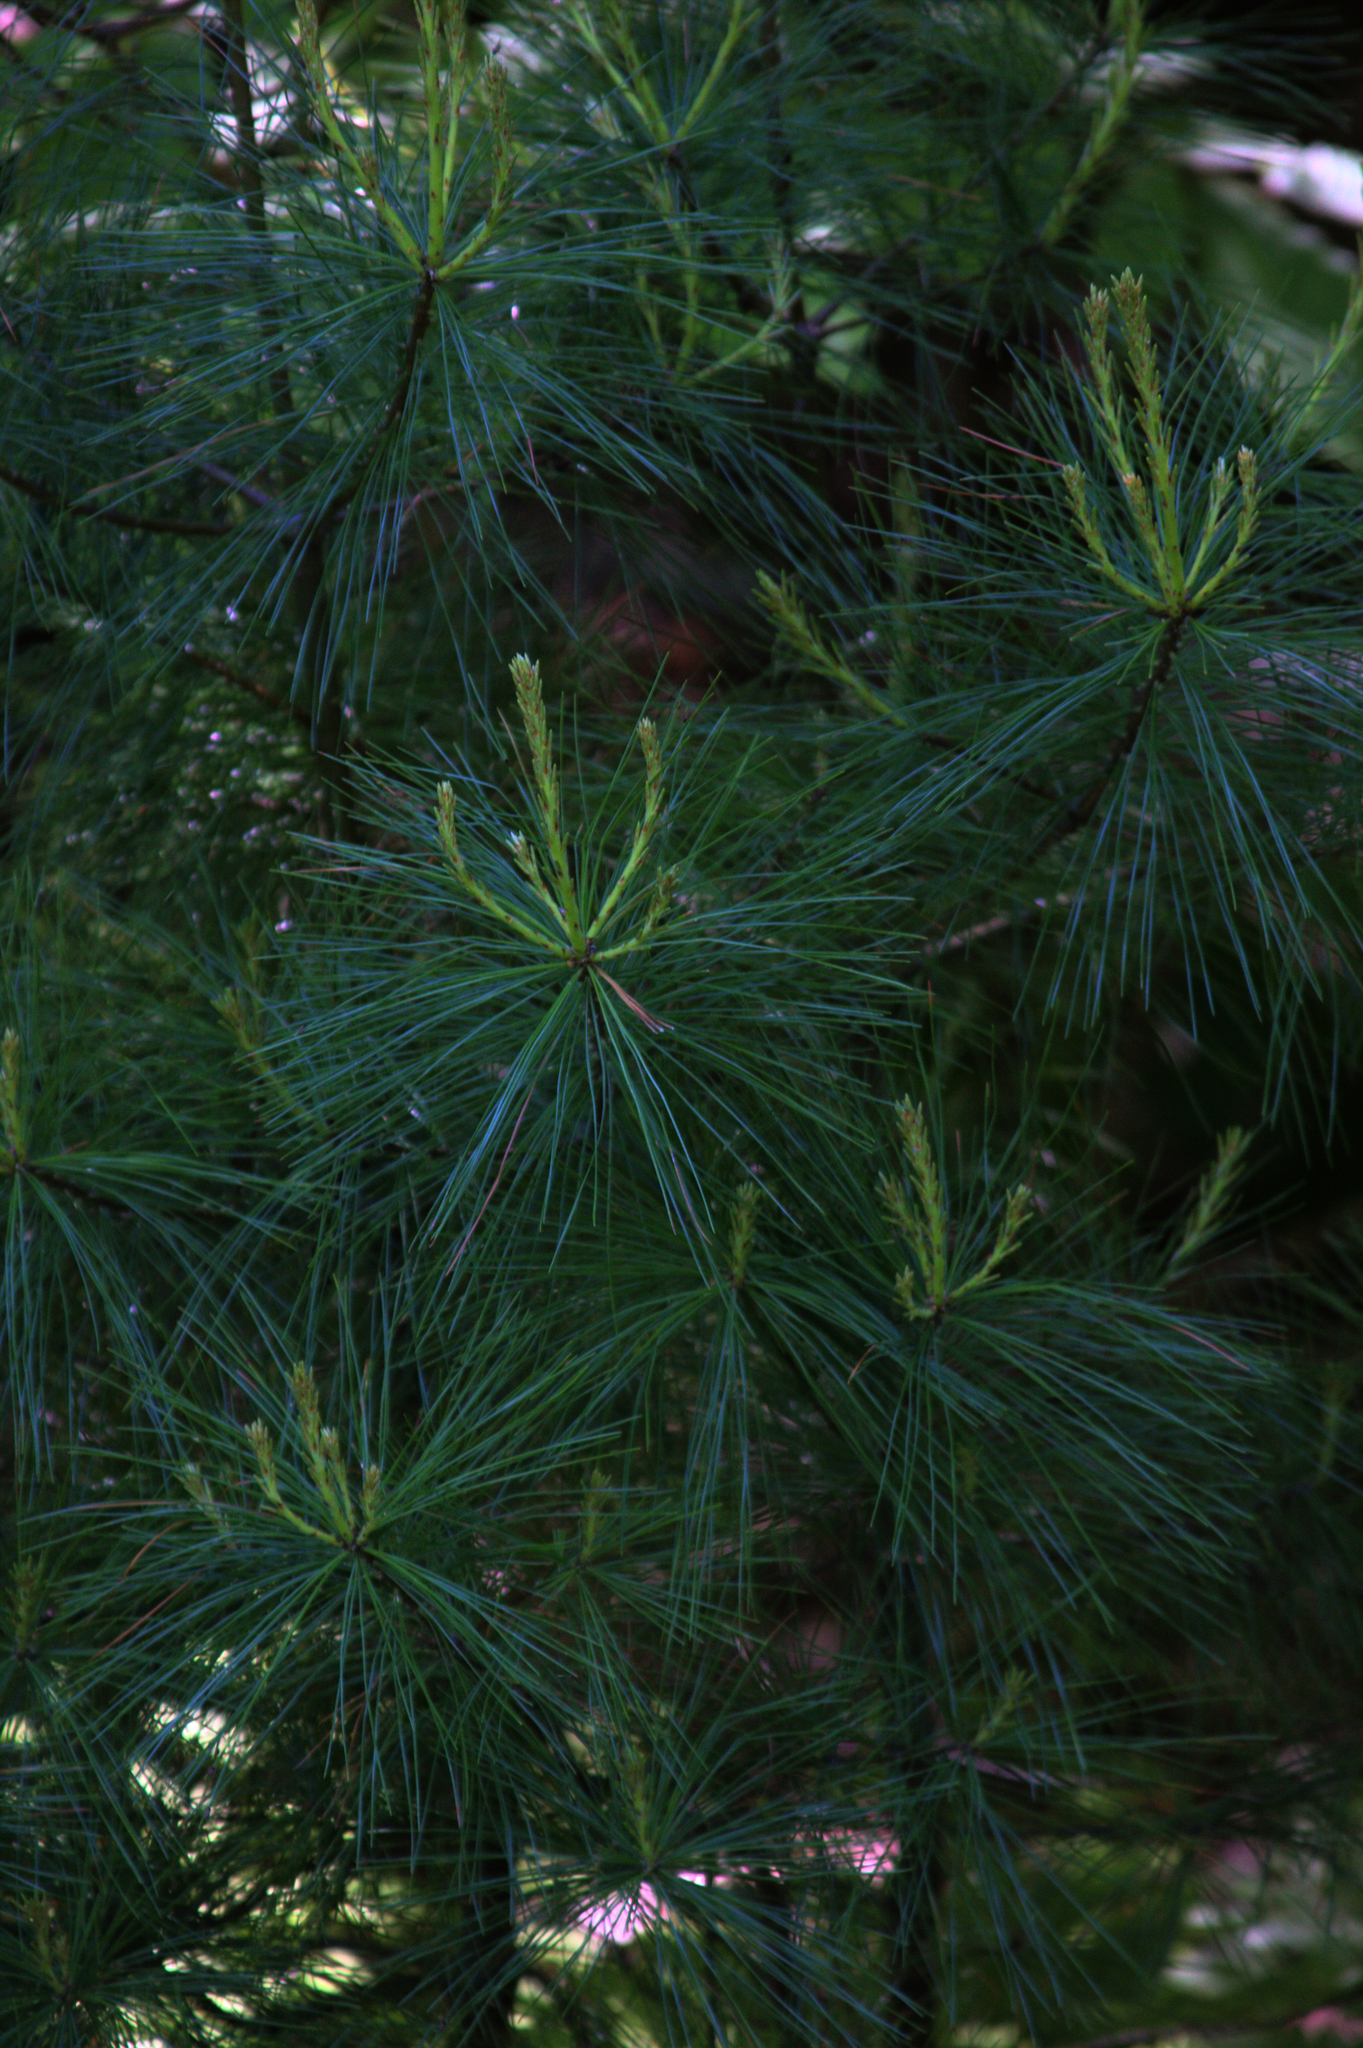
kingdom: Plantae
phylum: Tracheophyta
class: Pinopsida
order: Pinales
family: Pinaceae
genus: Pinus
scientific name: Pinus strobus
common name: Weymouth pine
